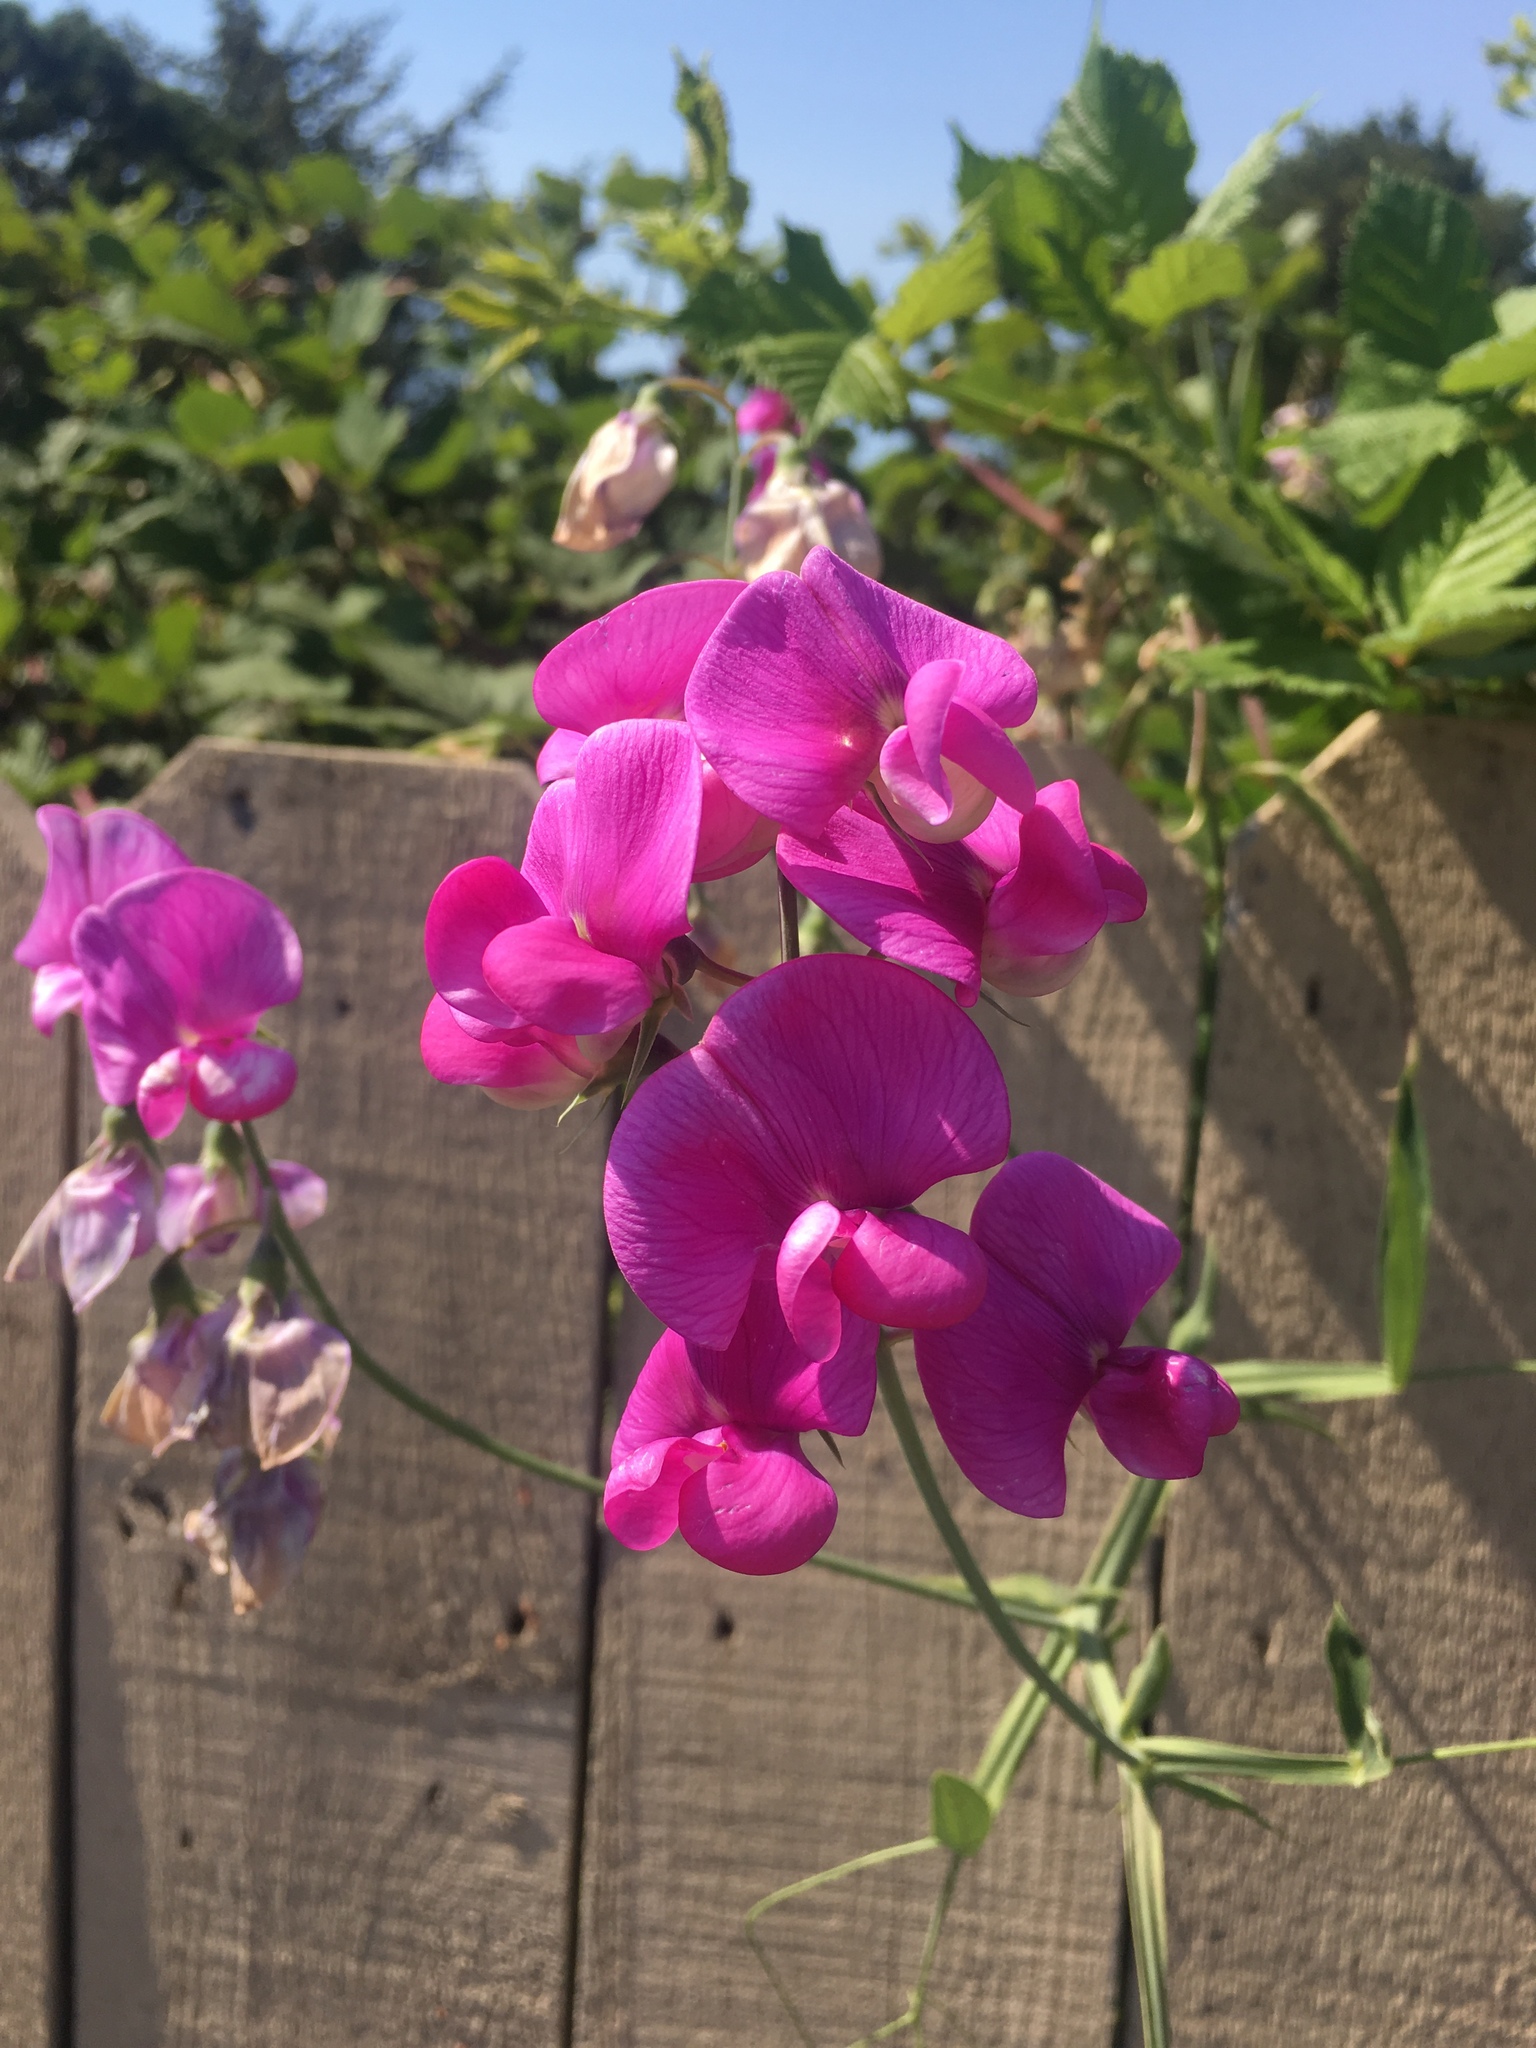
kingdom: Plantae
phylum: Tracheophyta
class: Magnoliopsida
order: Fabales
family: Fabaceae
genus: Lathyrus
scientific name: Lathyrus latifolius
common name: Perennial pea
